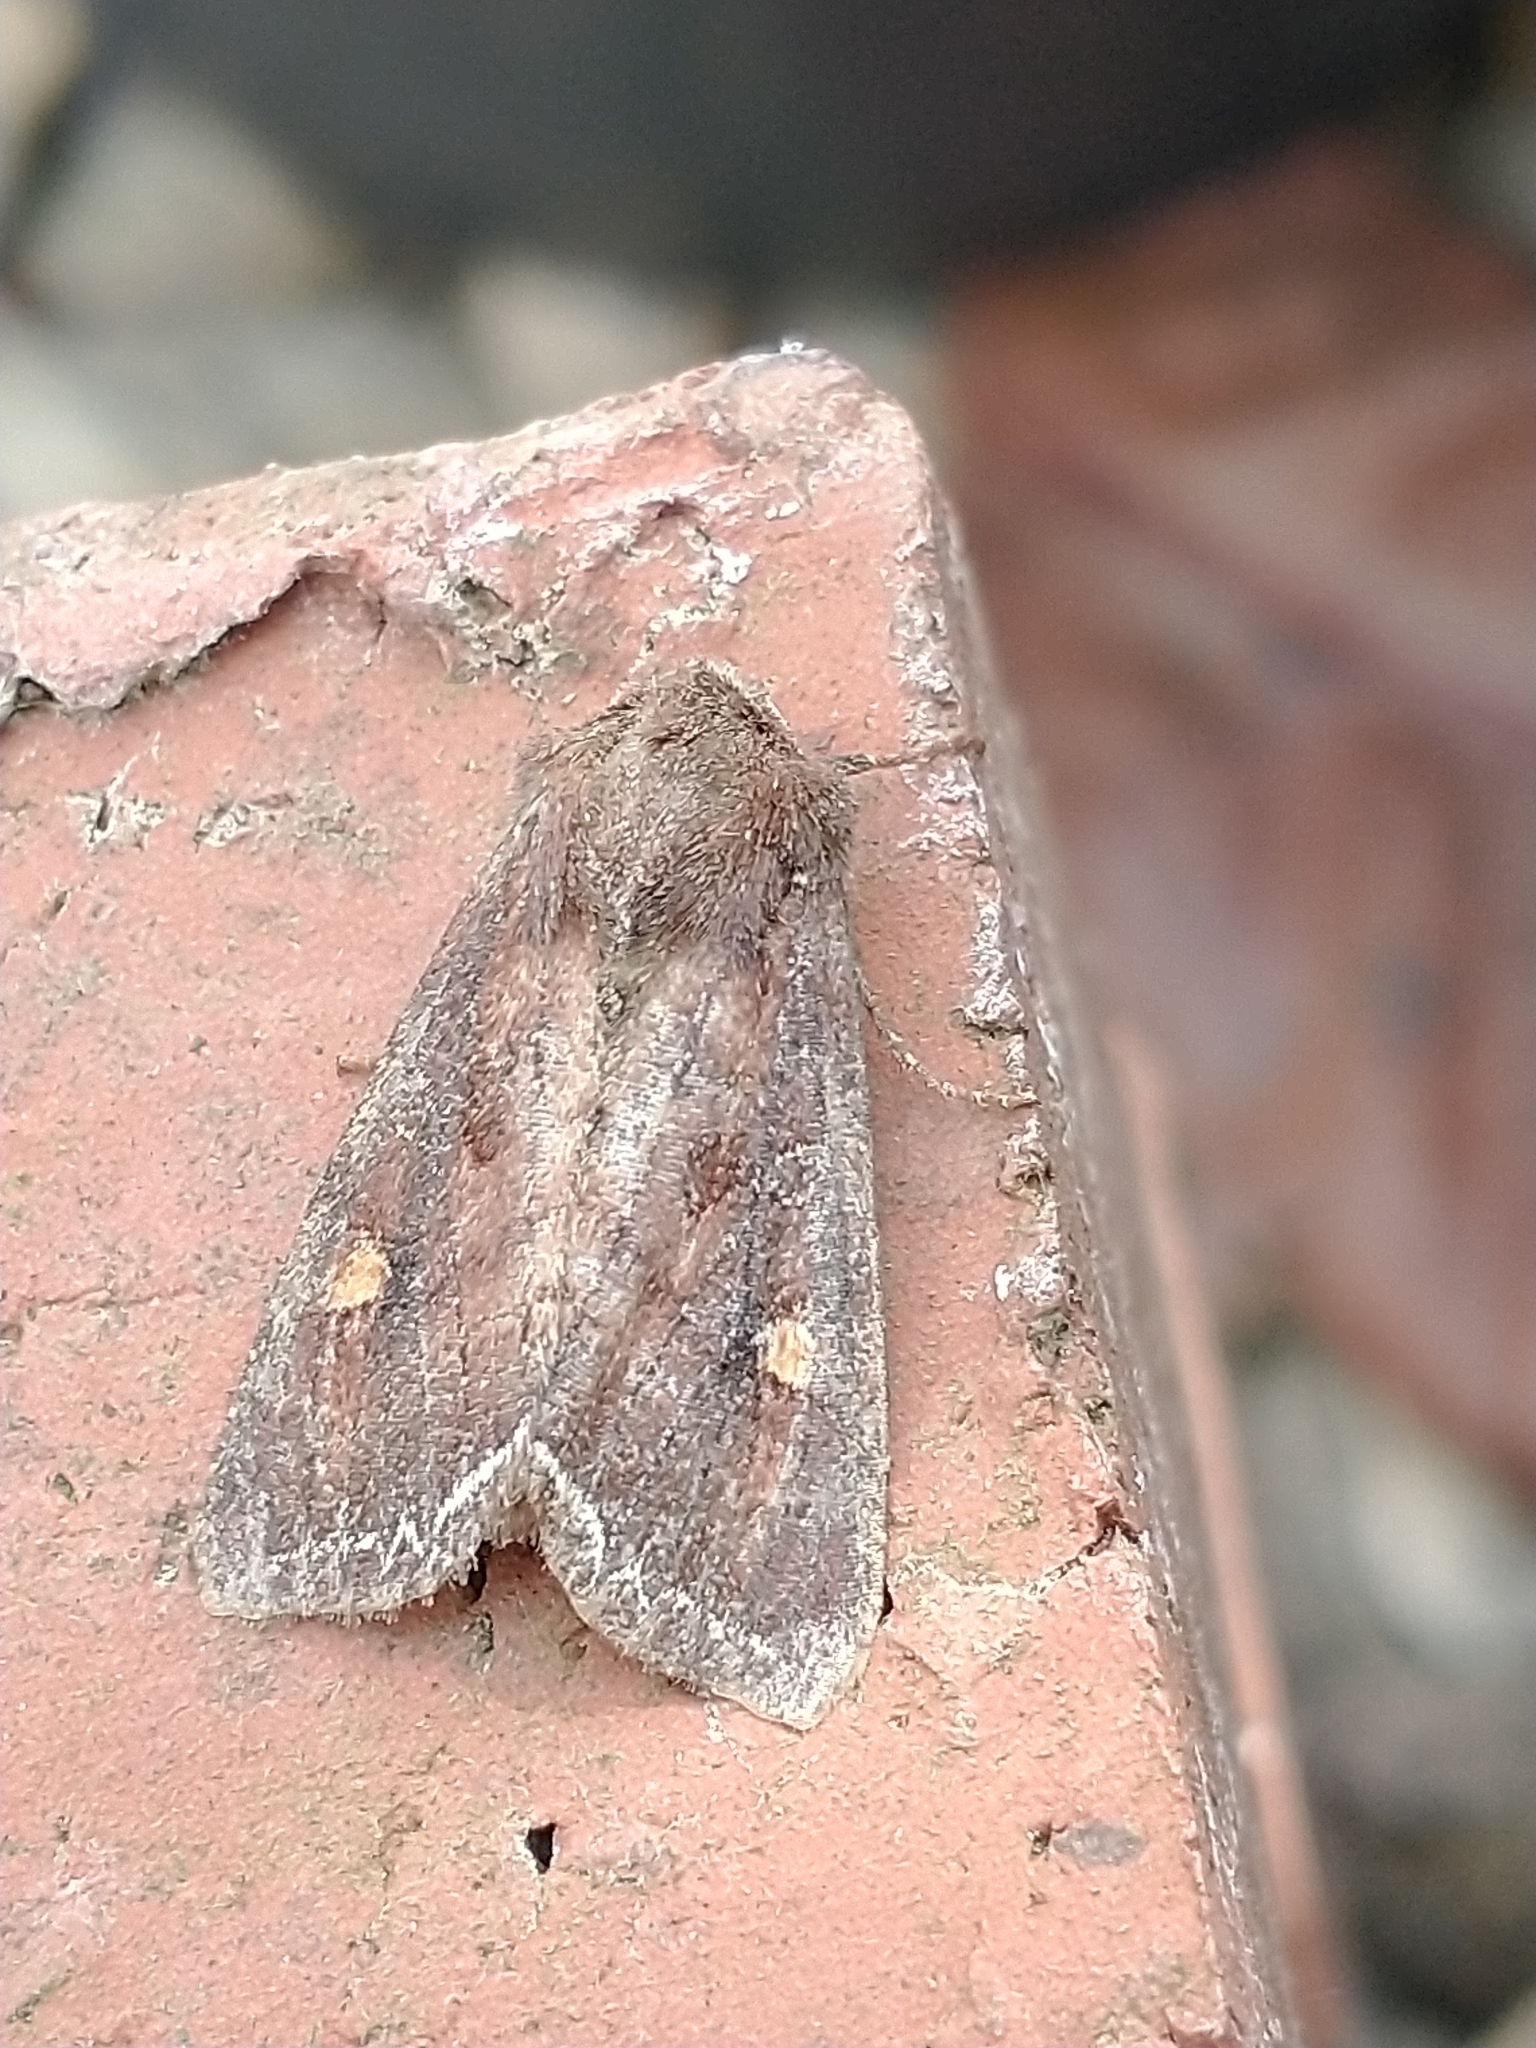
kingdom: Animalia
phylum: Arthropoda
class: Insecta
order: Lepidoptera
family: Noctuidae
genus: Lacanobia
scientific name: Lacanobia oleracea
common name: Bright-line brown-eye
